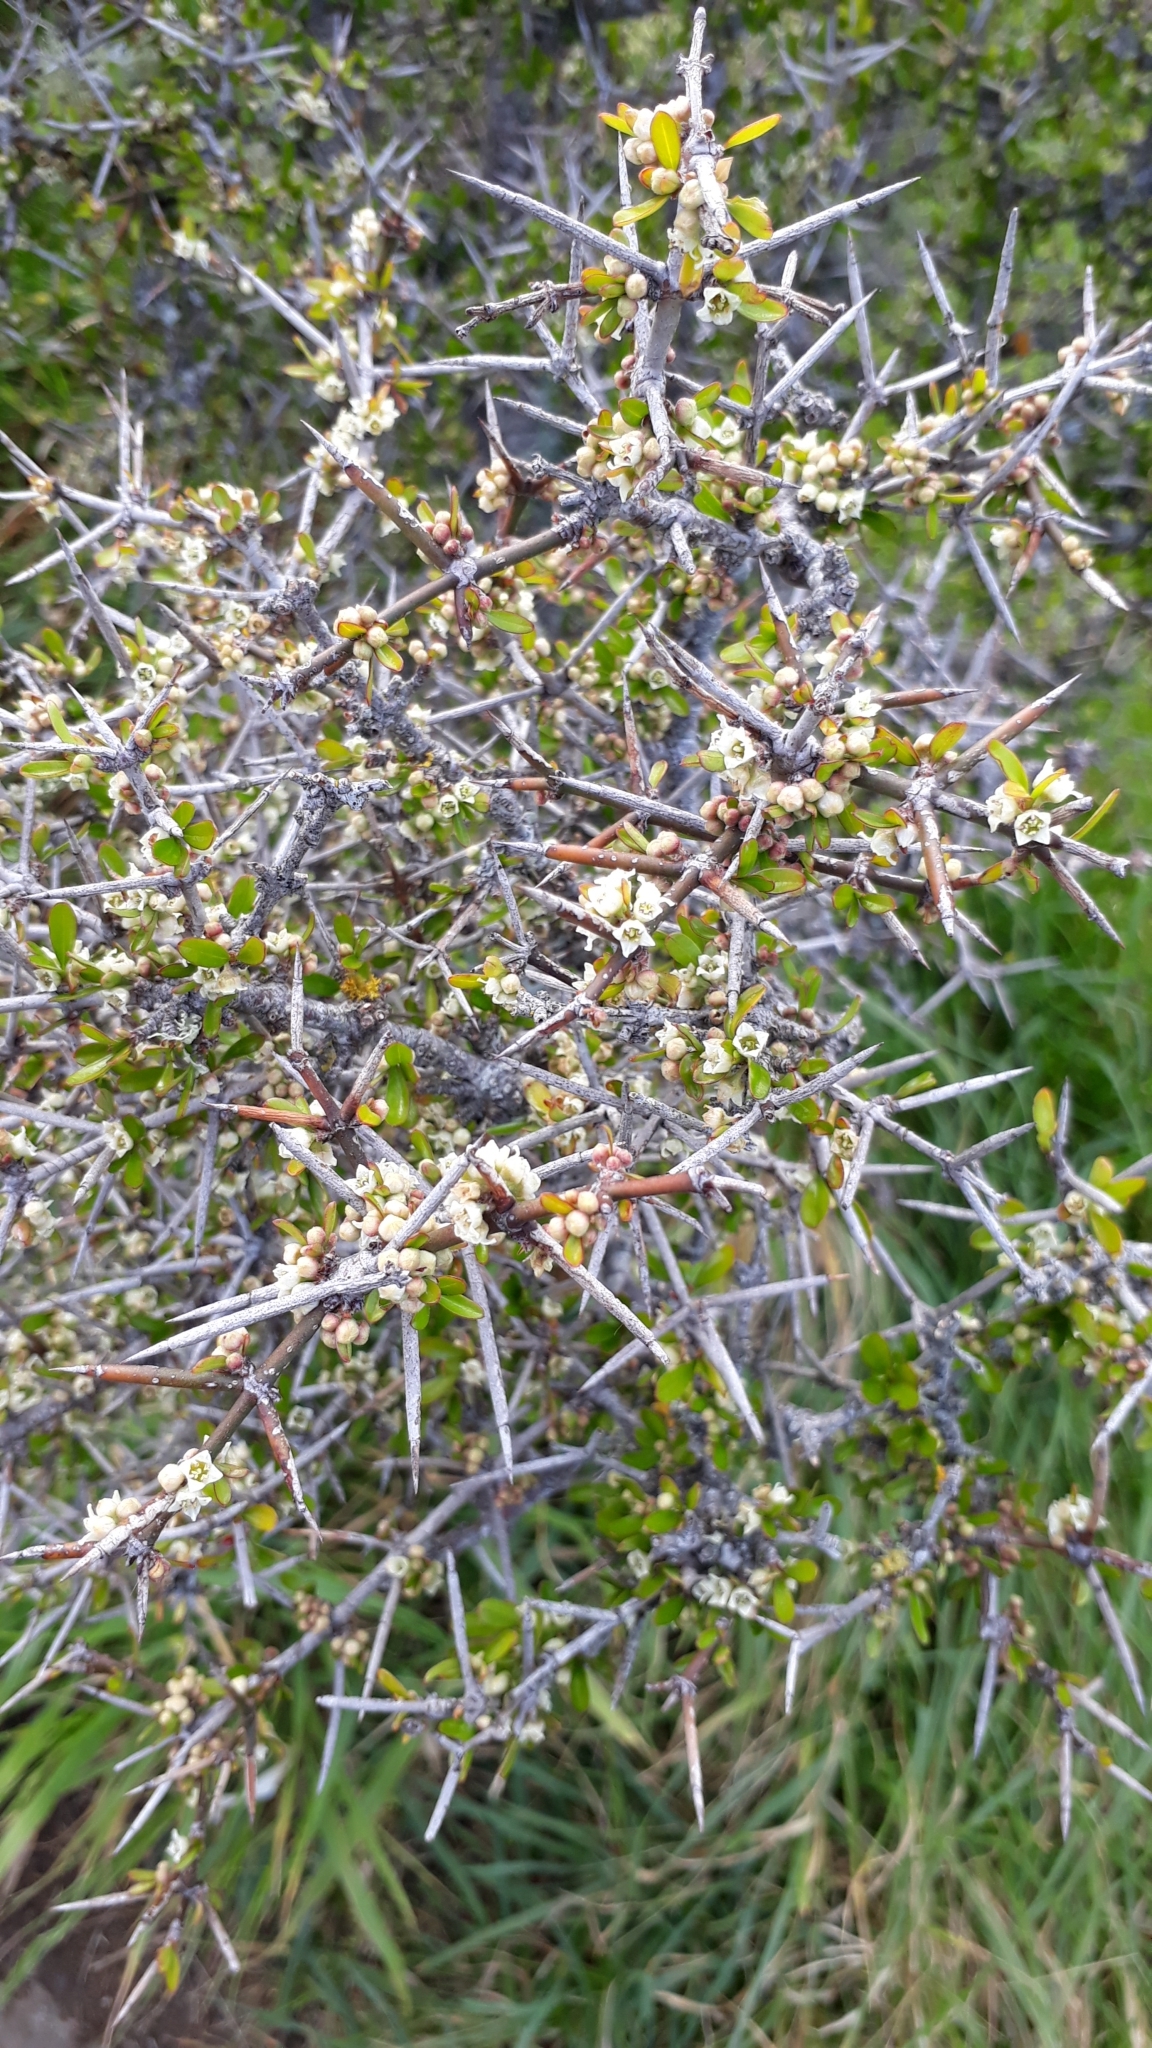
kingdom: Plantae
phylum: Tracheophyta
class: Magnoliopsida
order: Rosales
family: Rhamnaceae
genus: Discaria
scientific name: Discaria toumatou
